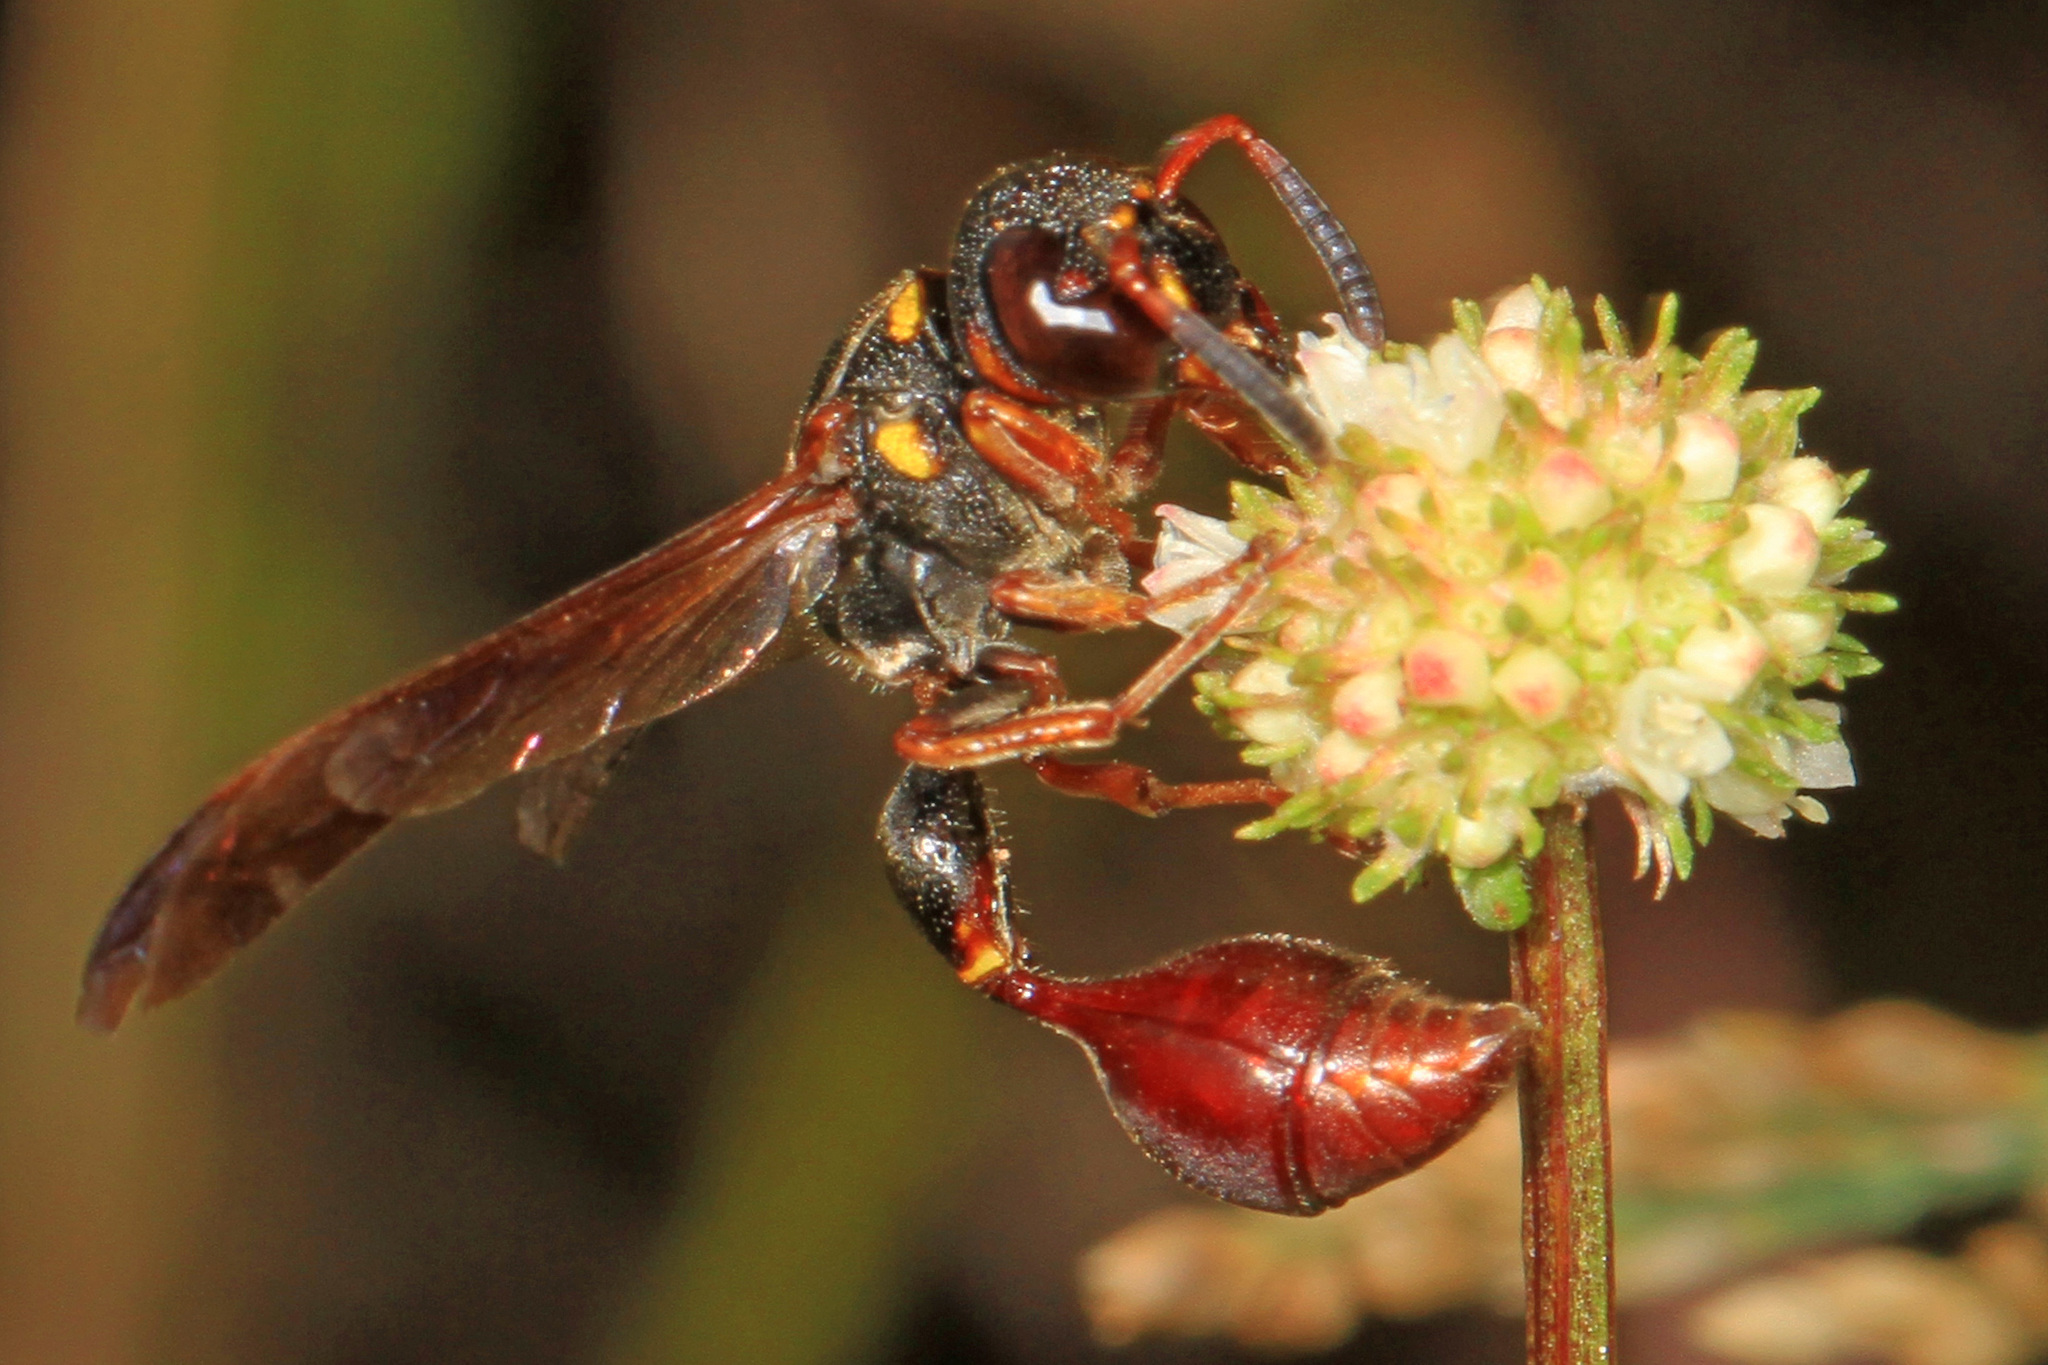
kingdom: Animalia
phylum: Arthropoda
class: Insecta
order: Hymenoptera
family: Eumenidae
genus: Zethus
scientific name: Zethus slossonae
